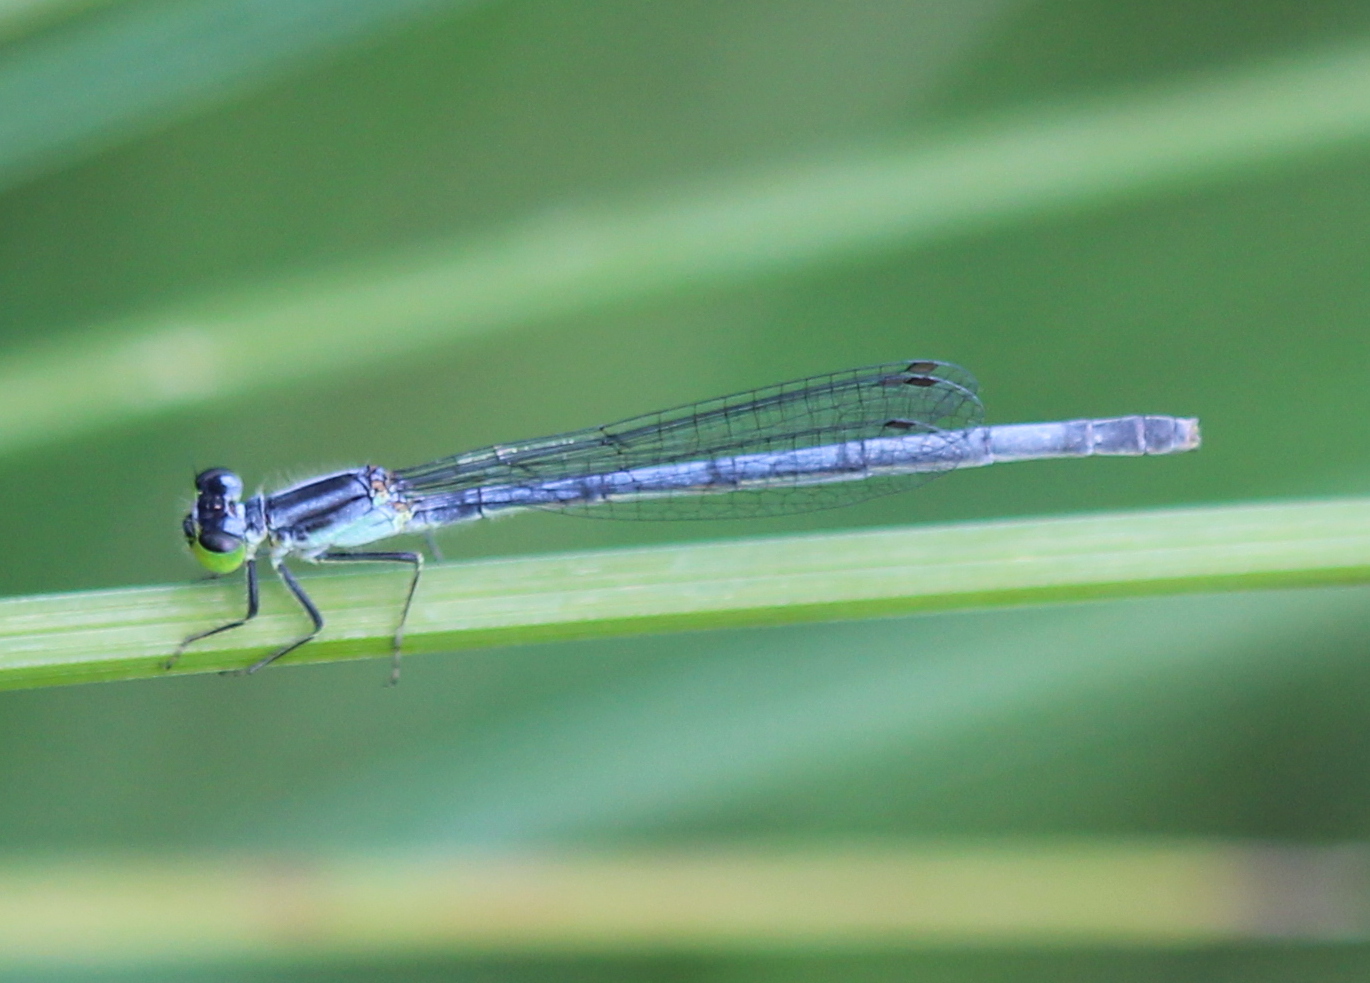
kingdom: Animalia
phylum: Arthropoda
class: Insecta
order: Odonata
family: Coenagrionidae
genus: Ischnura
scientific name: Ischnura verticalis
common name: Eastern forktail
